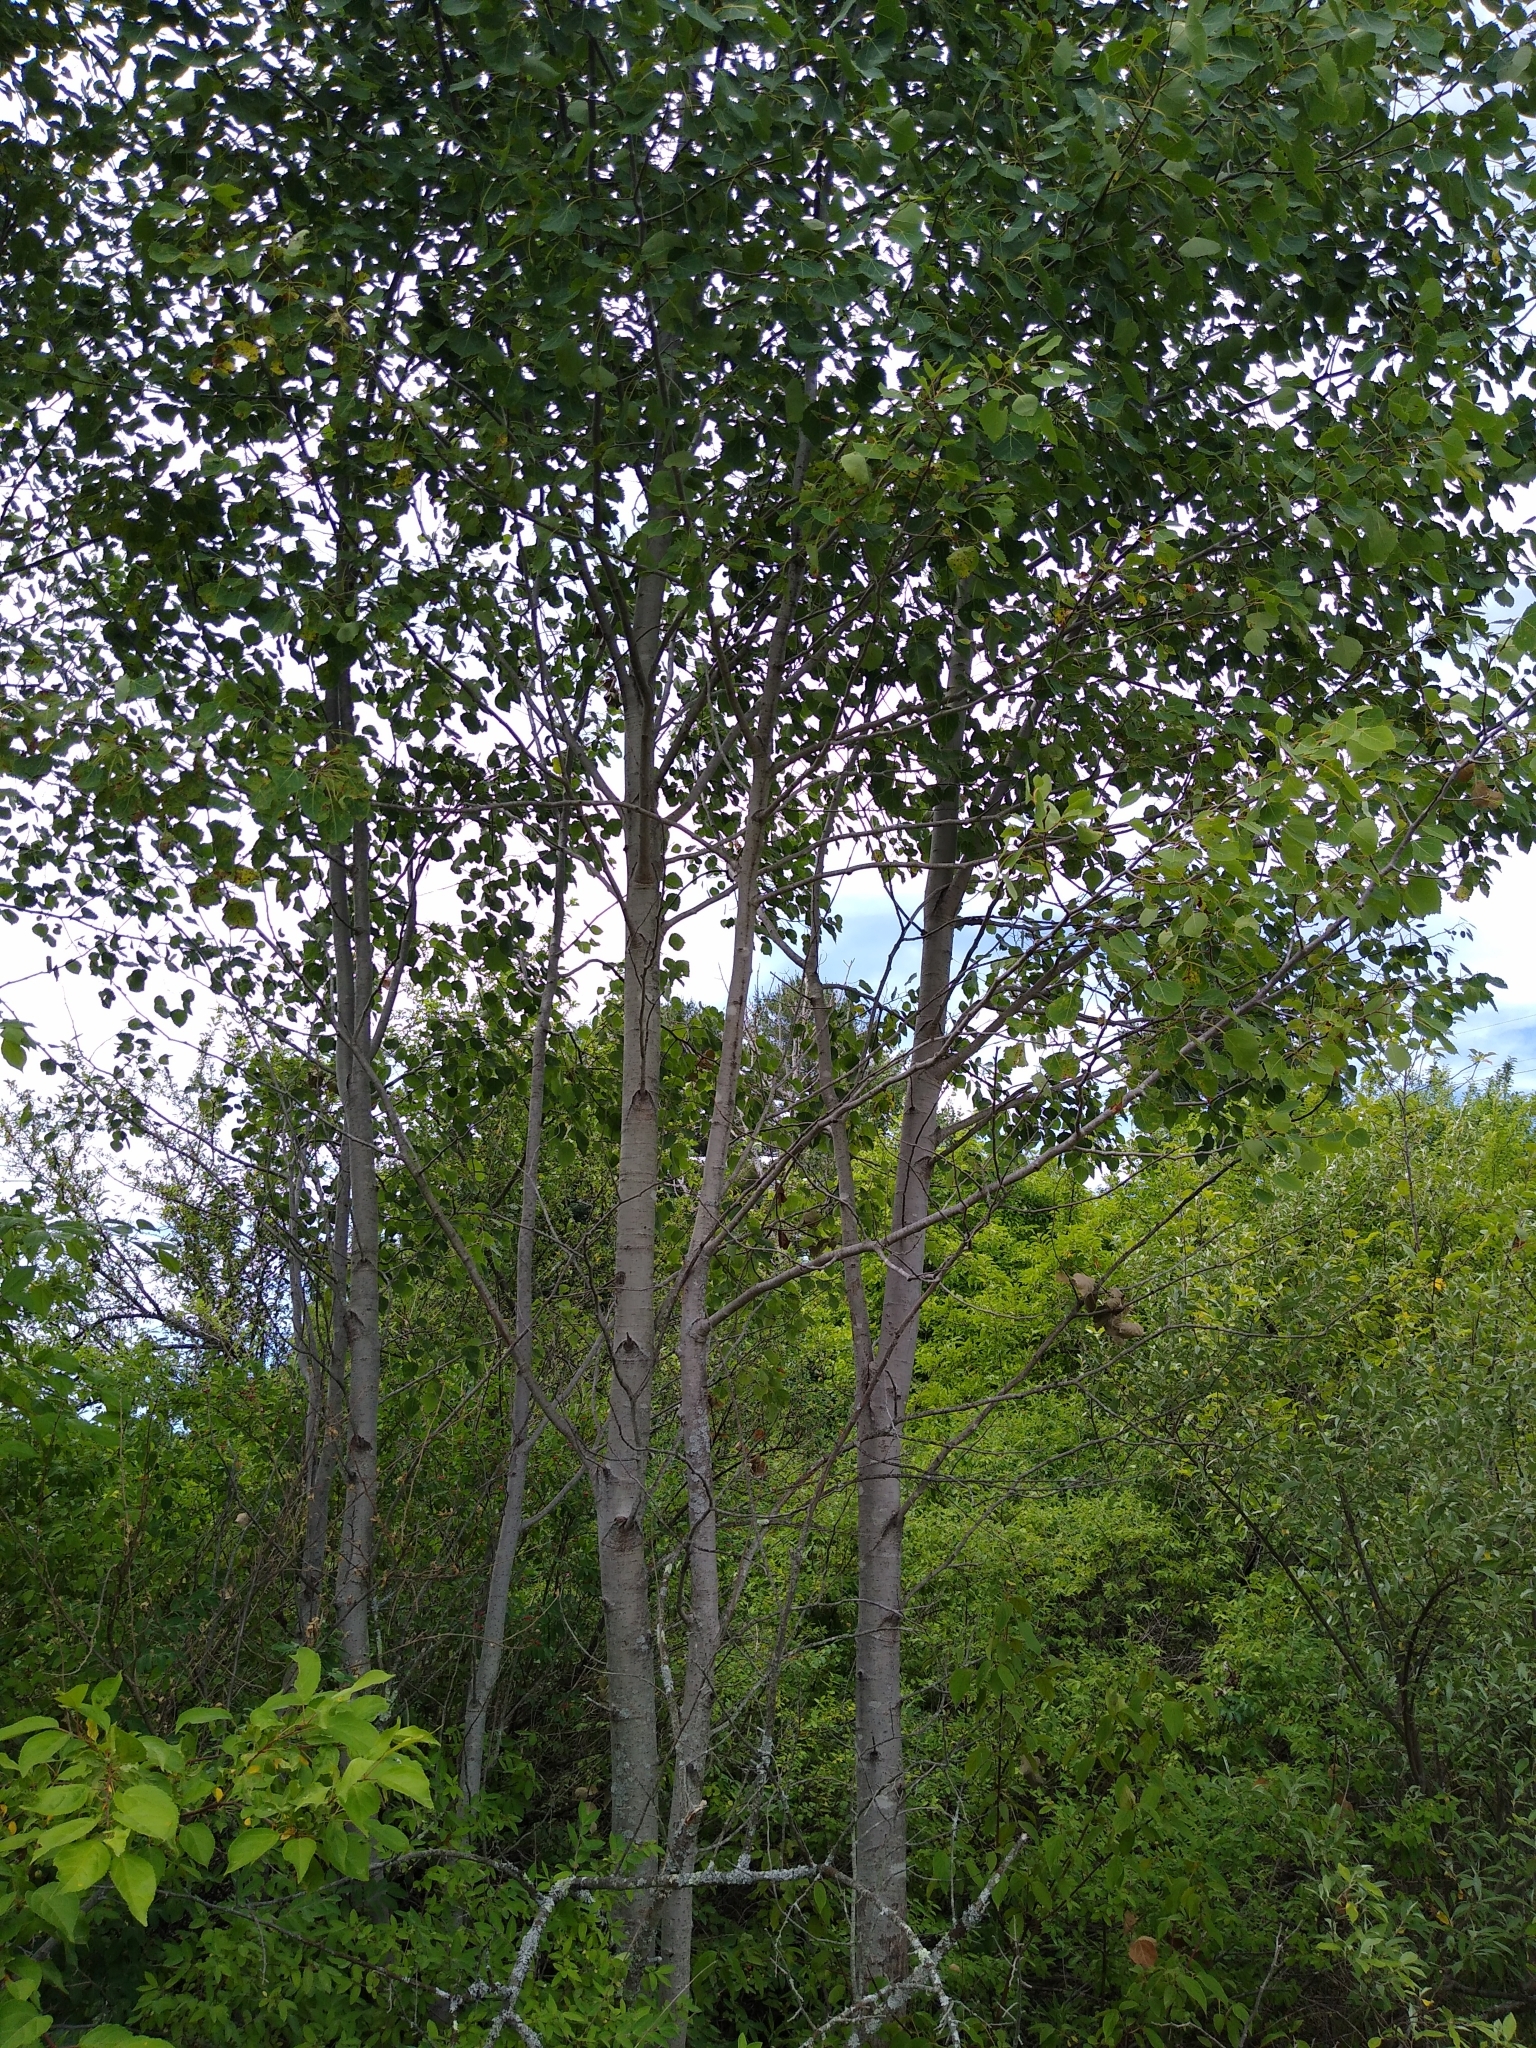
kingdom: Plantae
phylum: Tracheophyta
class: Magnoliopsida
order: Malpighiales
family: Salicaceae
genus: Populus
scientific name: Populus tremuloides
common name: Quaking aspen
